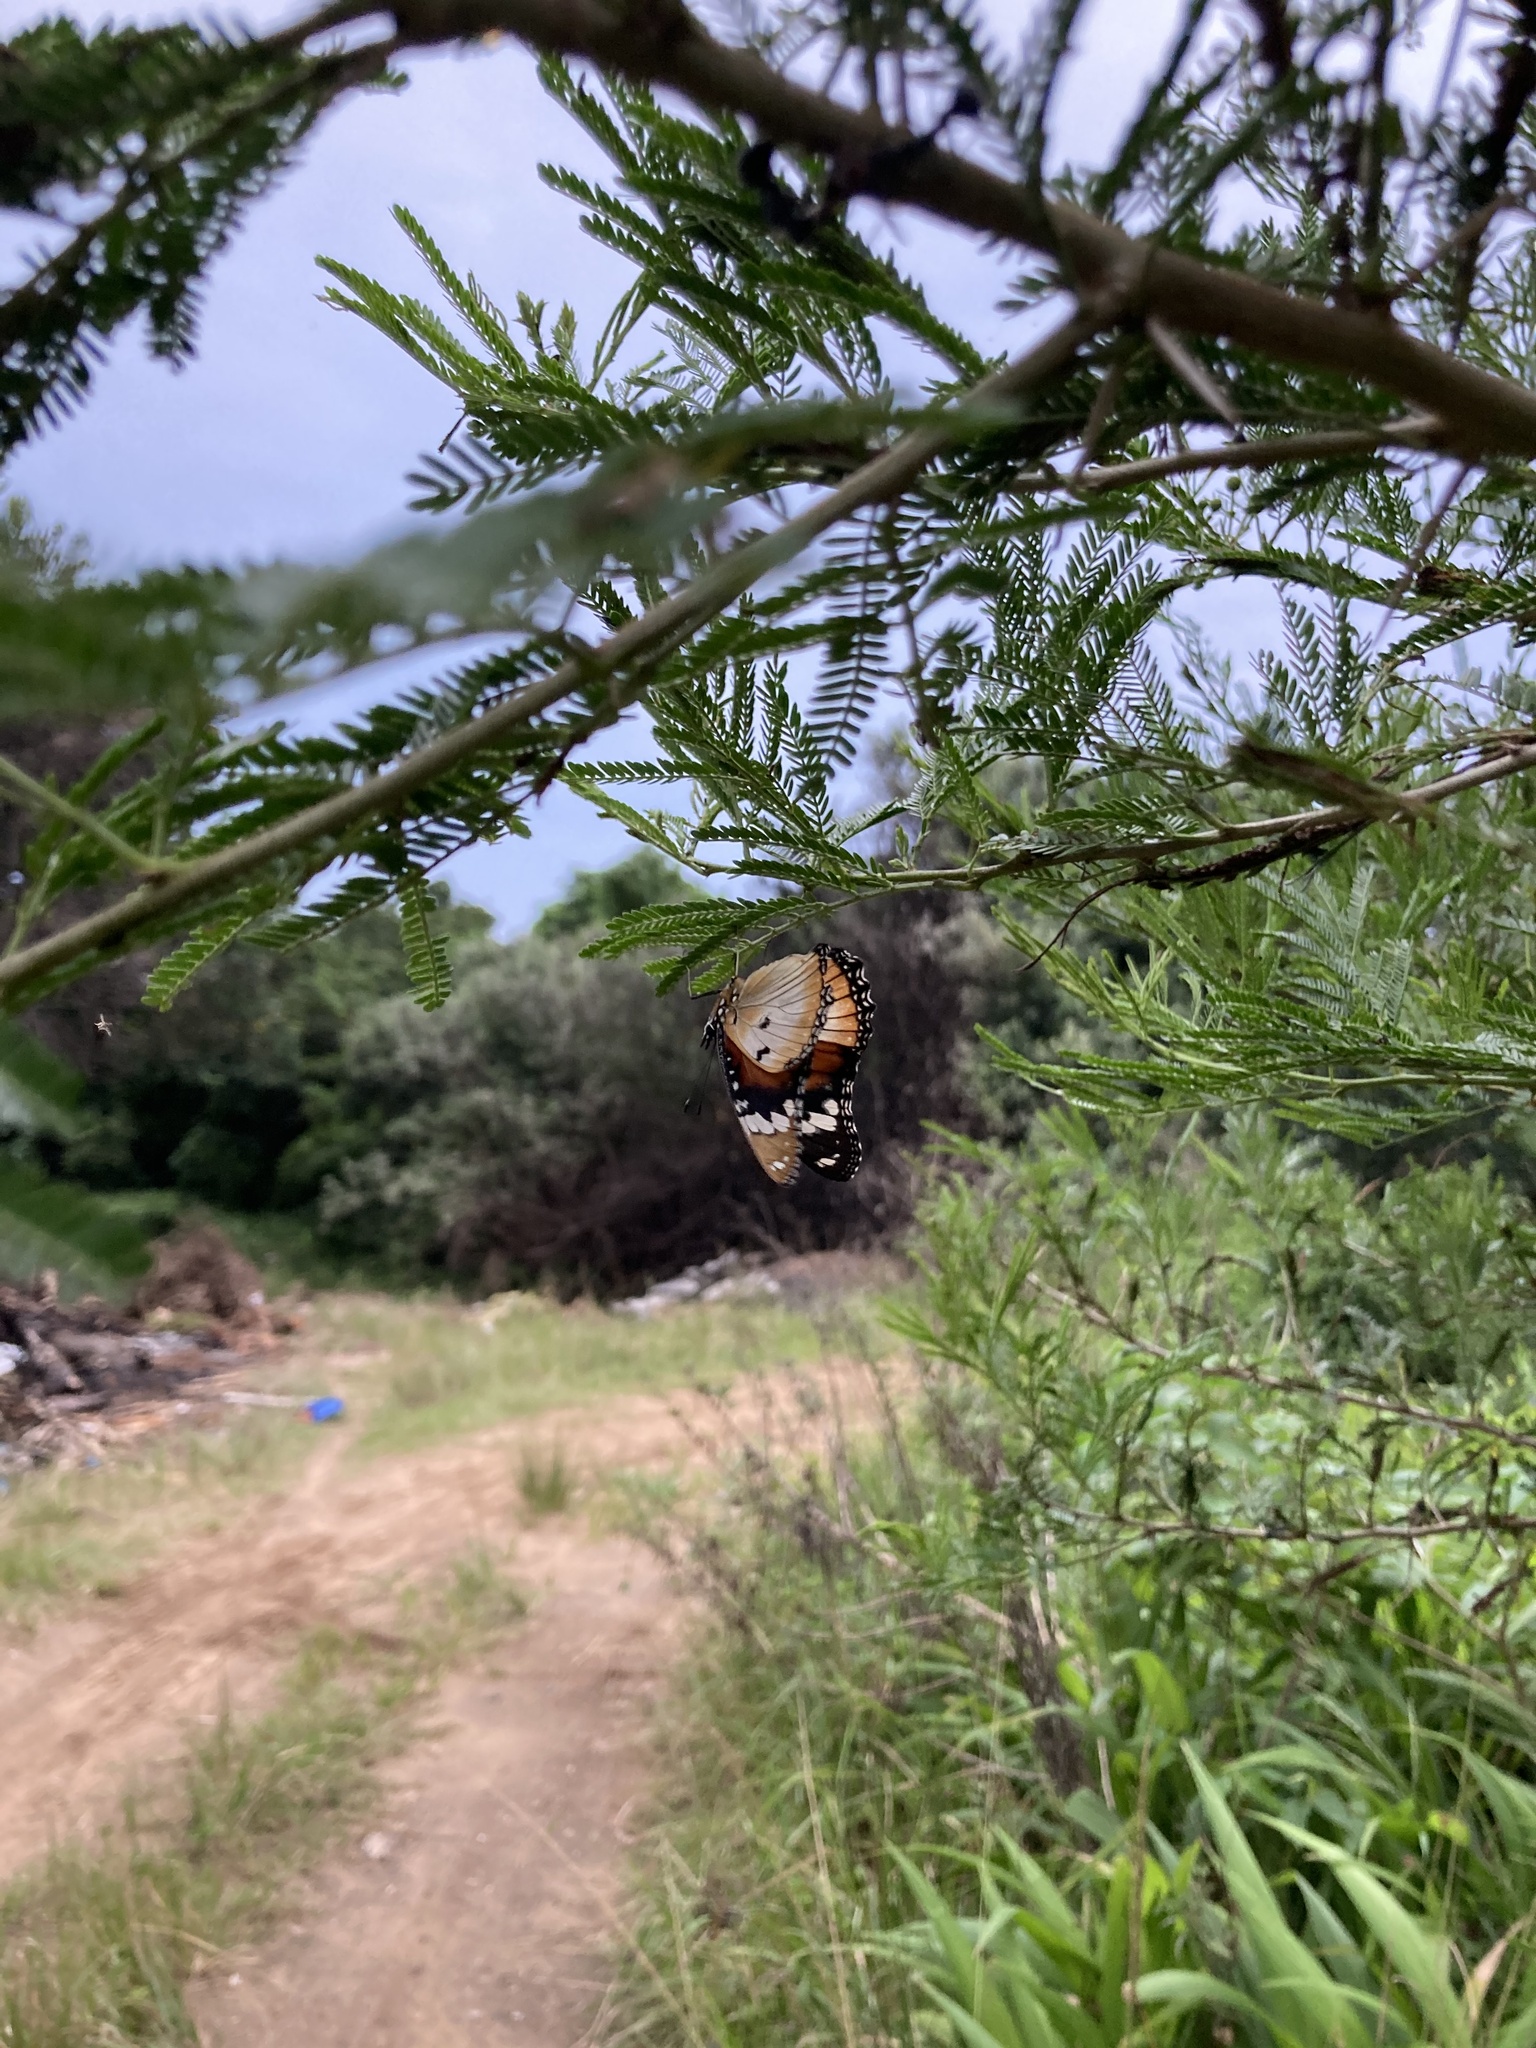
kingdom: Animalia
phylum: Arthropoda
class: Insecta
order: Lepidoptera
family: Nymphalidae
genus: Hypolimnas
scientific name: Hypolimnas misippus
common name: False plain tiger
